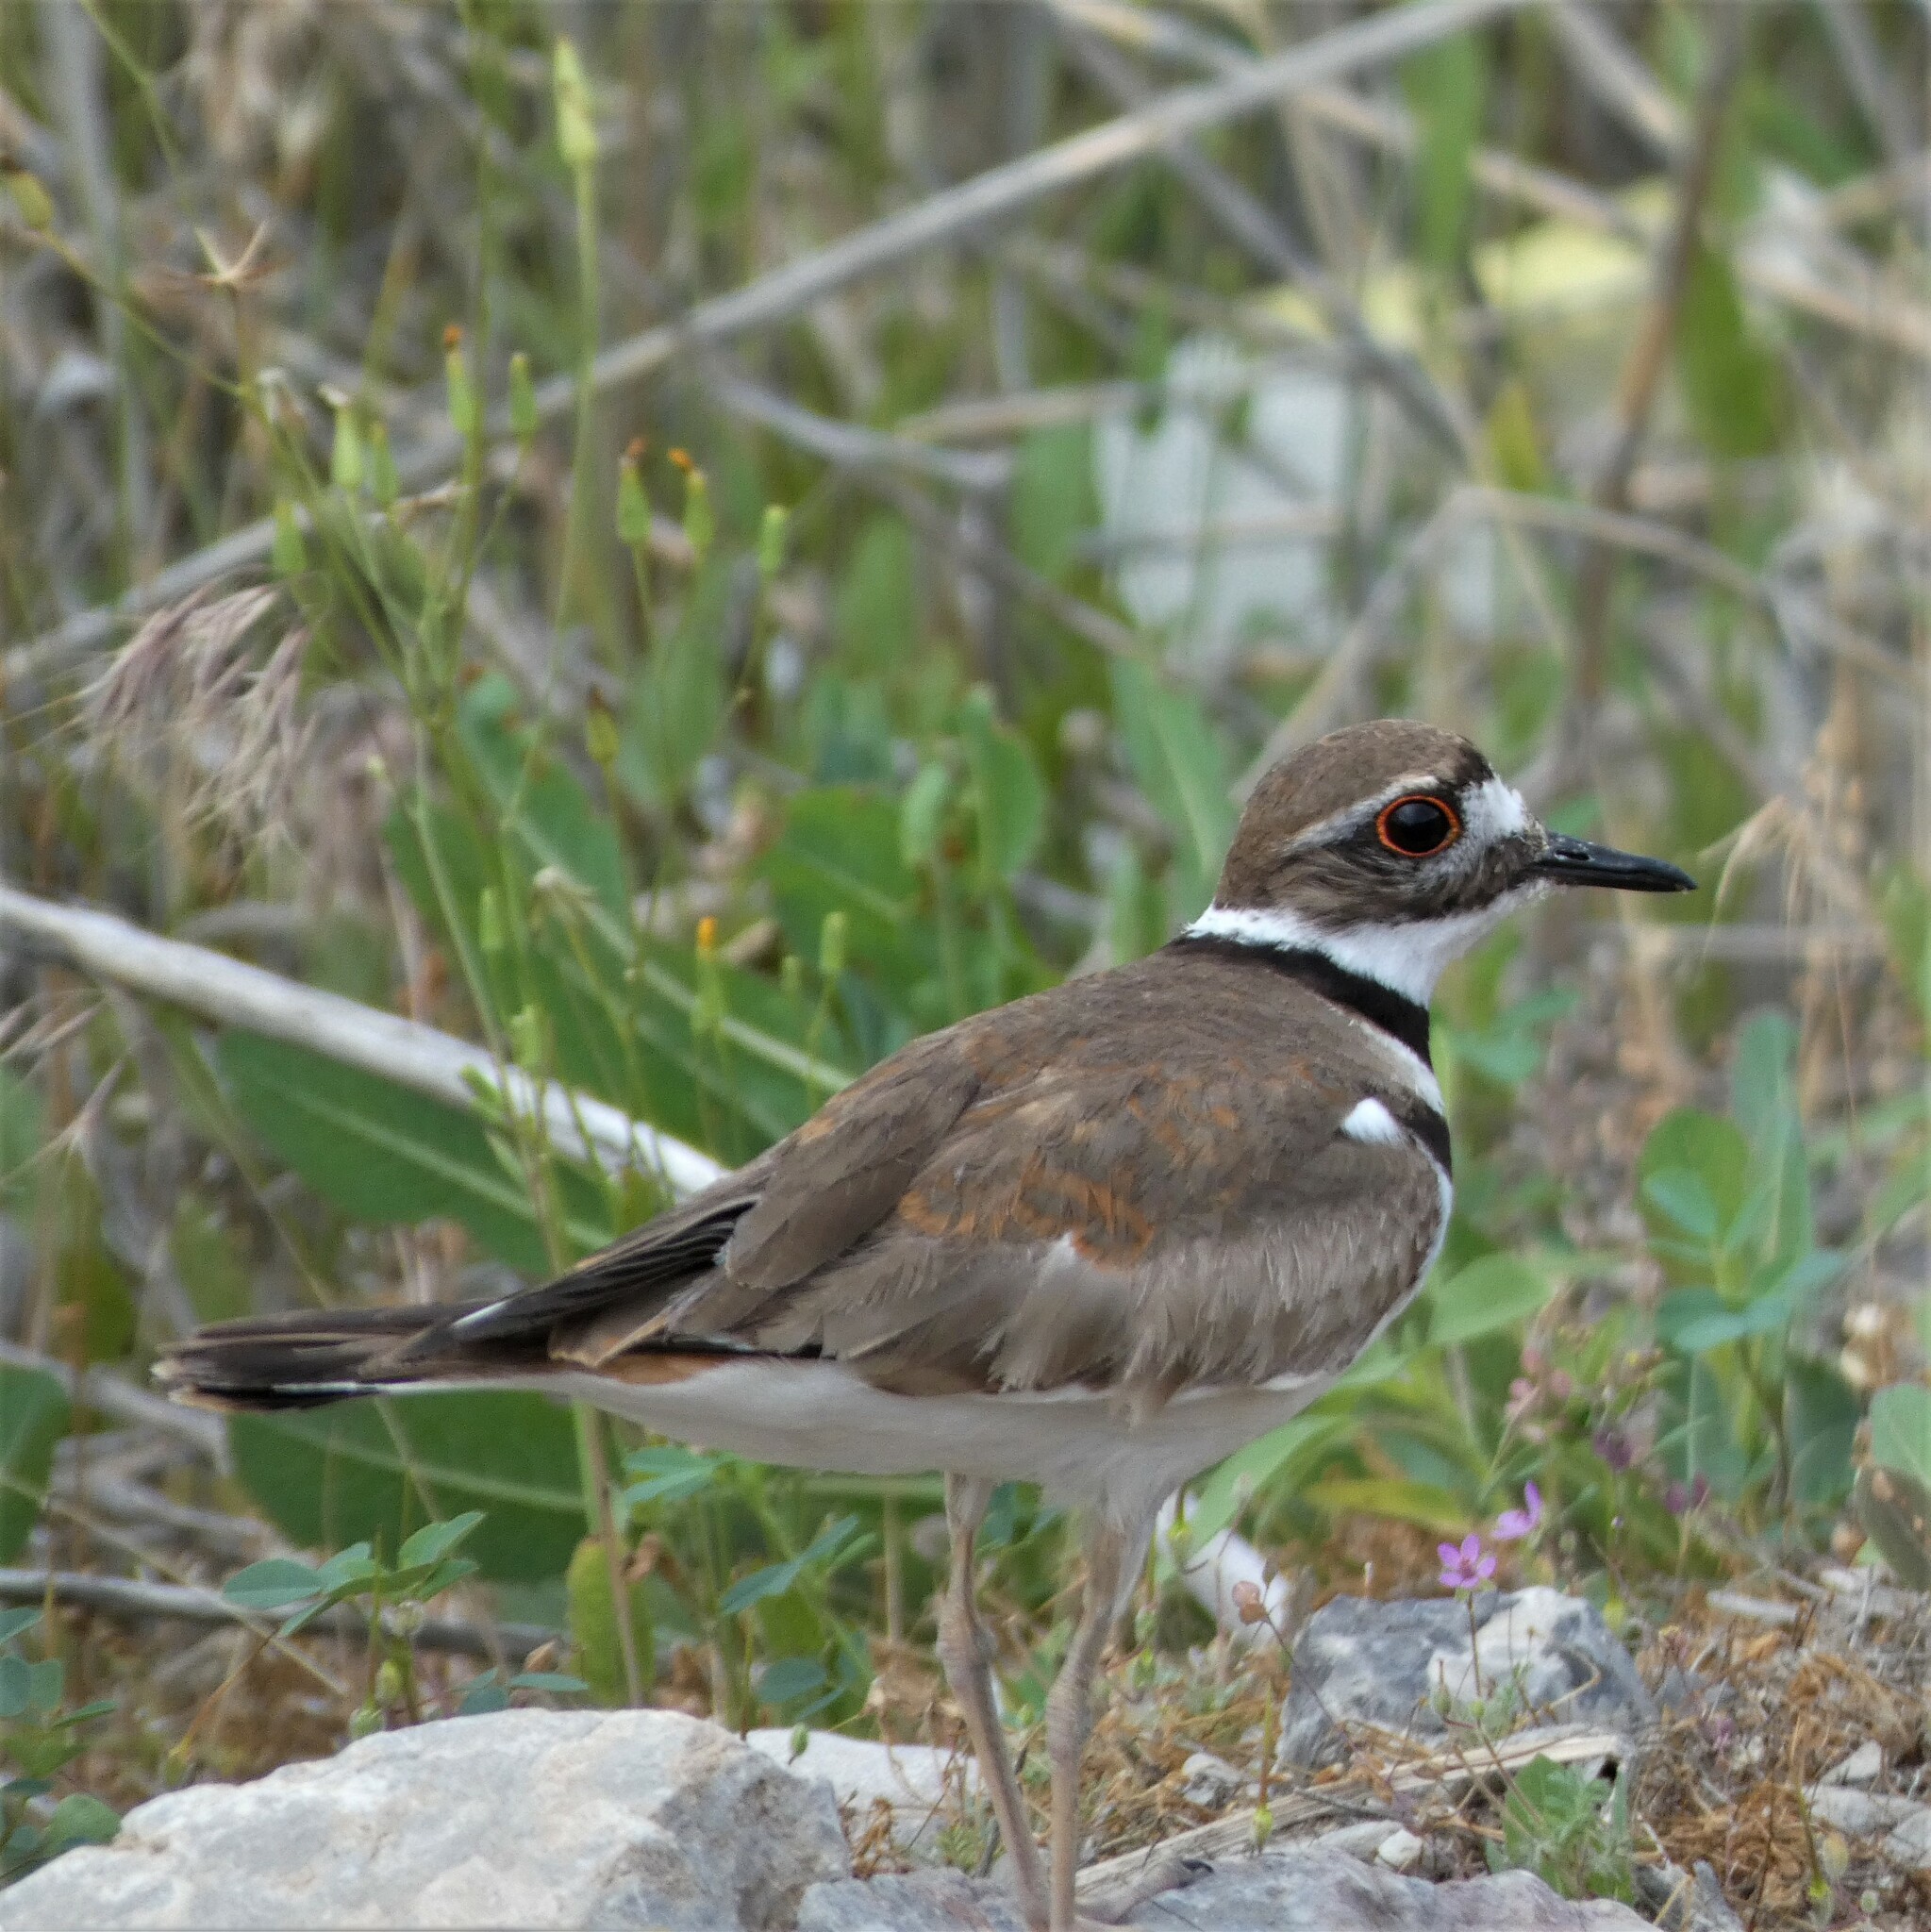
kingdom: Animalia
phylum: Chordata
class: Aves
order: Charadriiformes
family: Charadriidae
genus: Charadrius
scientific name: Charadrius vociferus
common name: Killdeer
